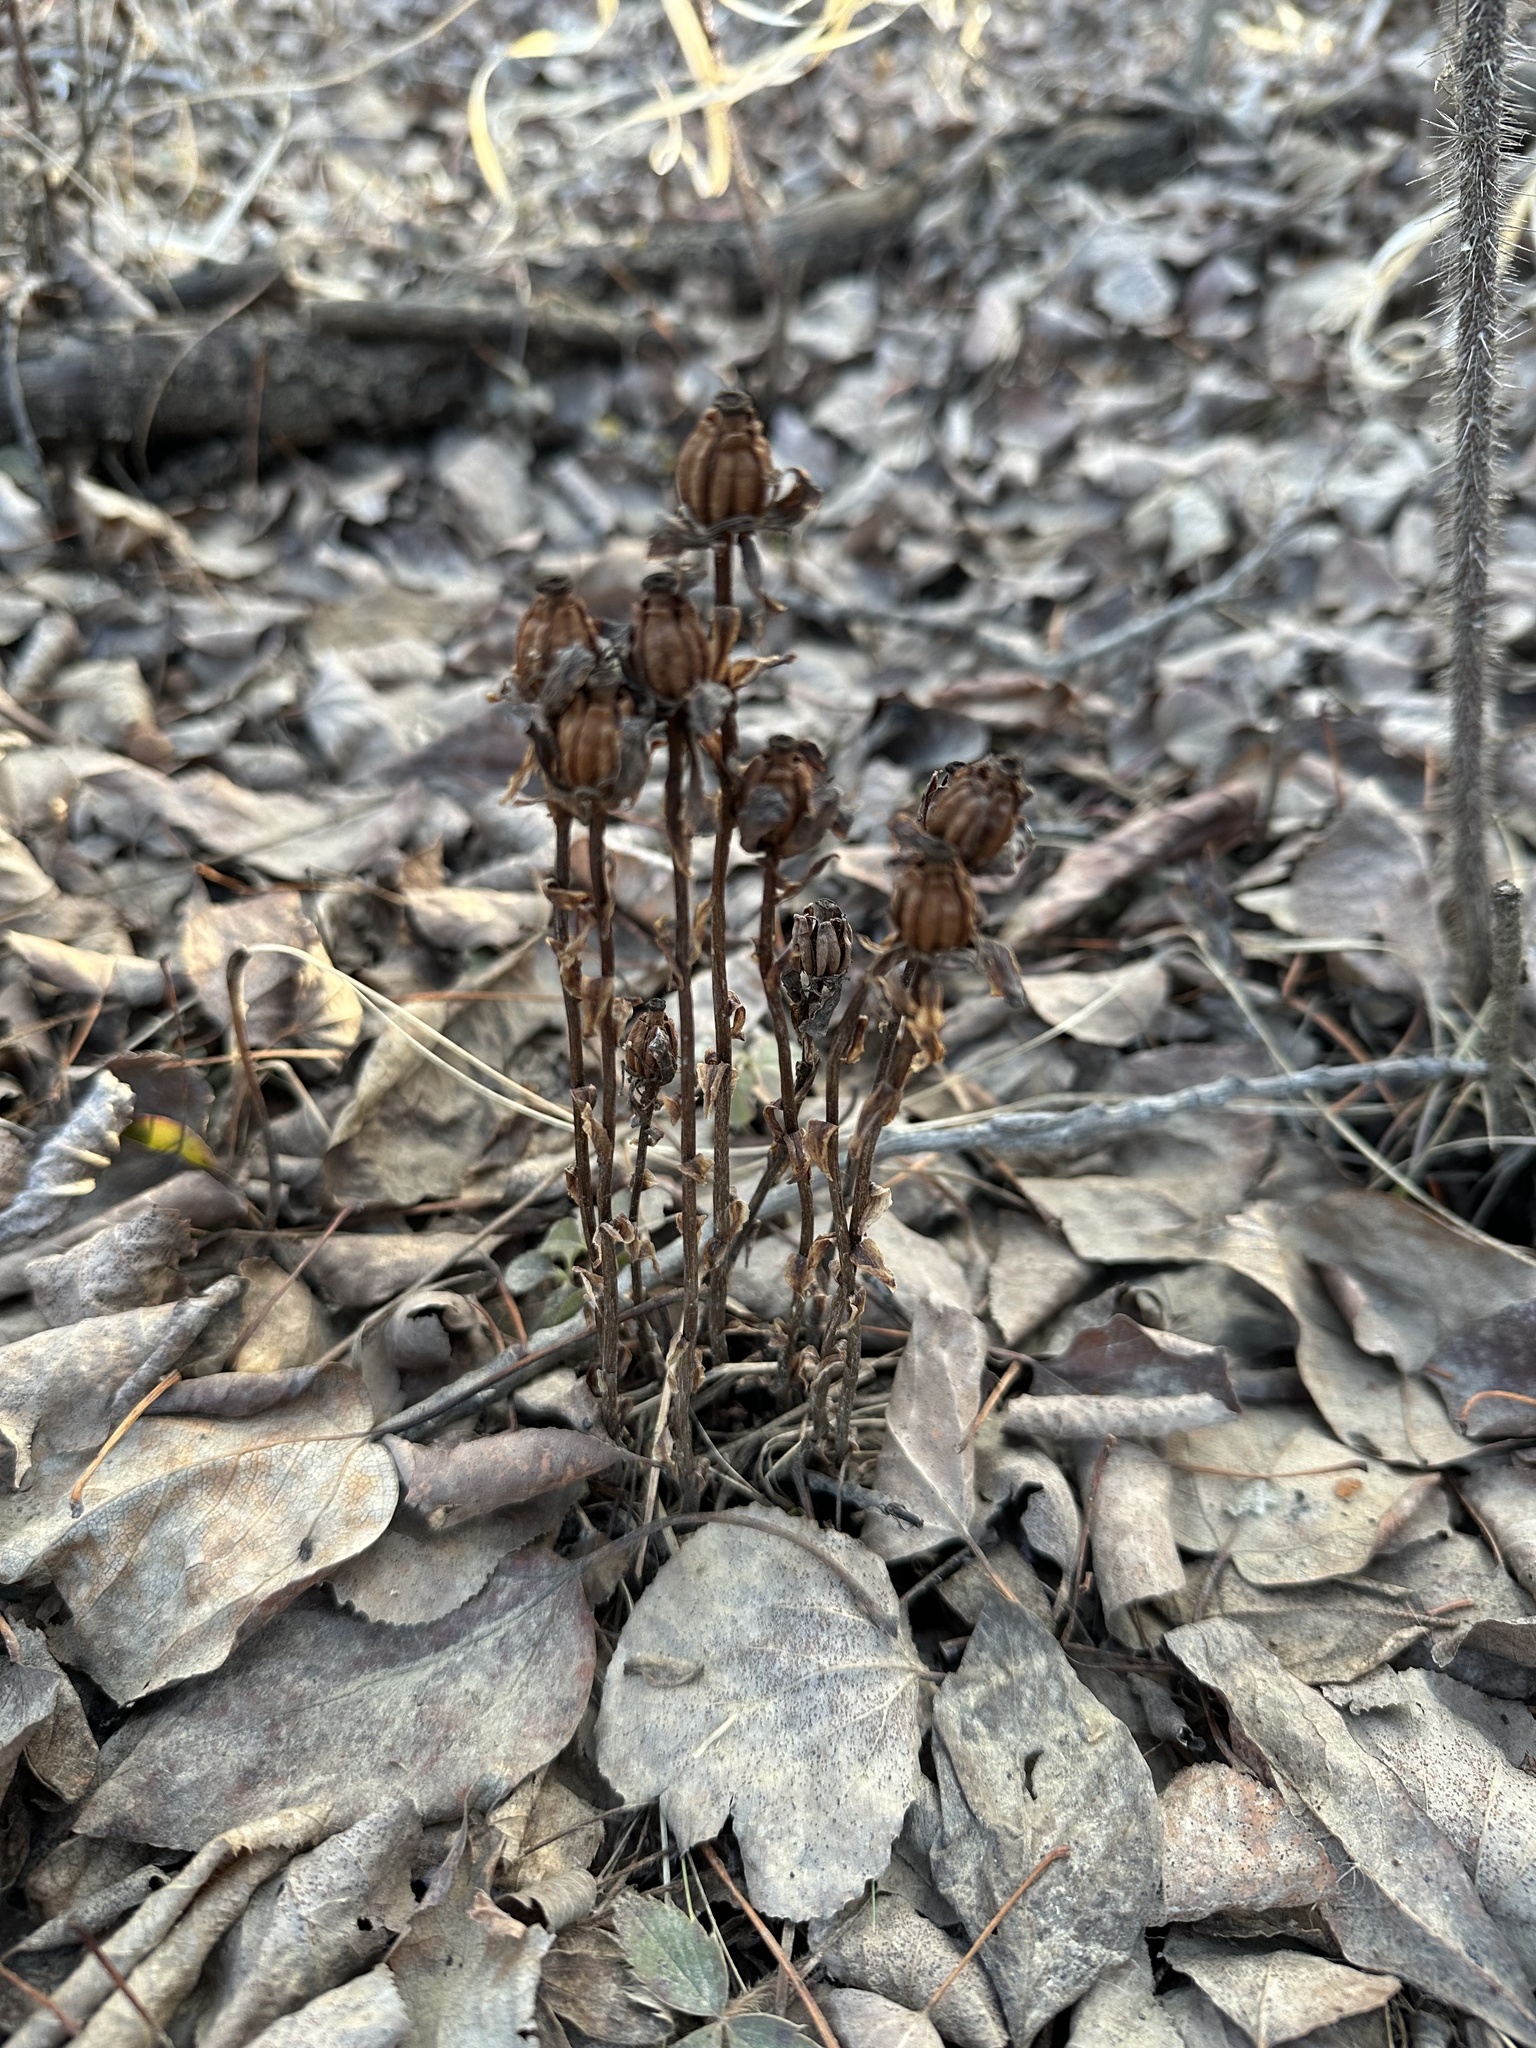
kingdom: Plantae
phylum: Tracheophyta
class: Magnoliopsida
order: Ericales
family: Ericaceae
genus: Monotropa
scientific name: Monotropa uniflora
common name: Convulsion root
